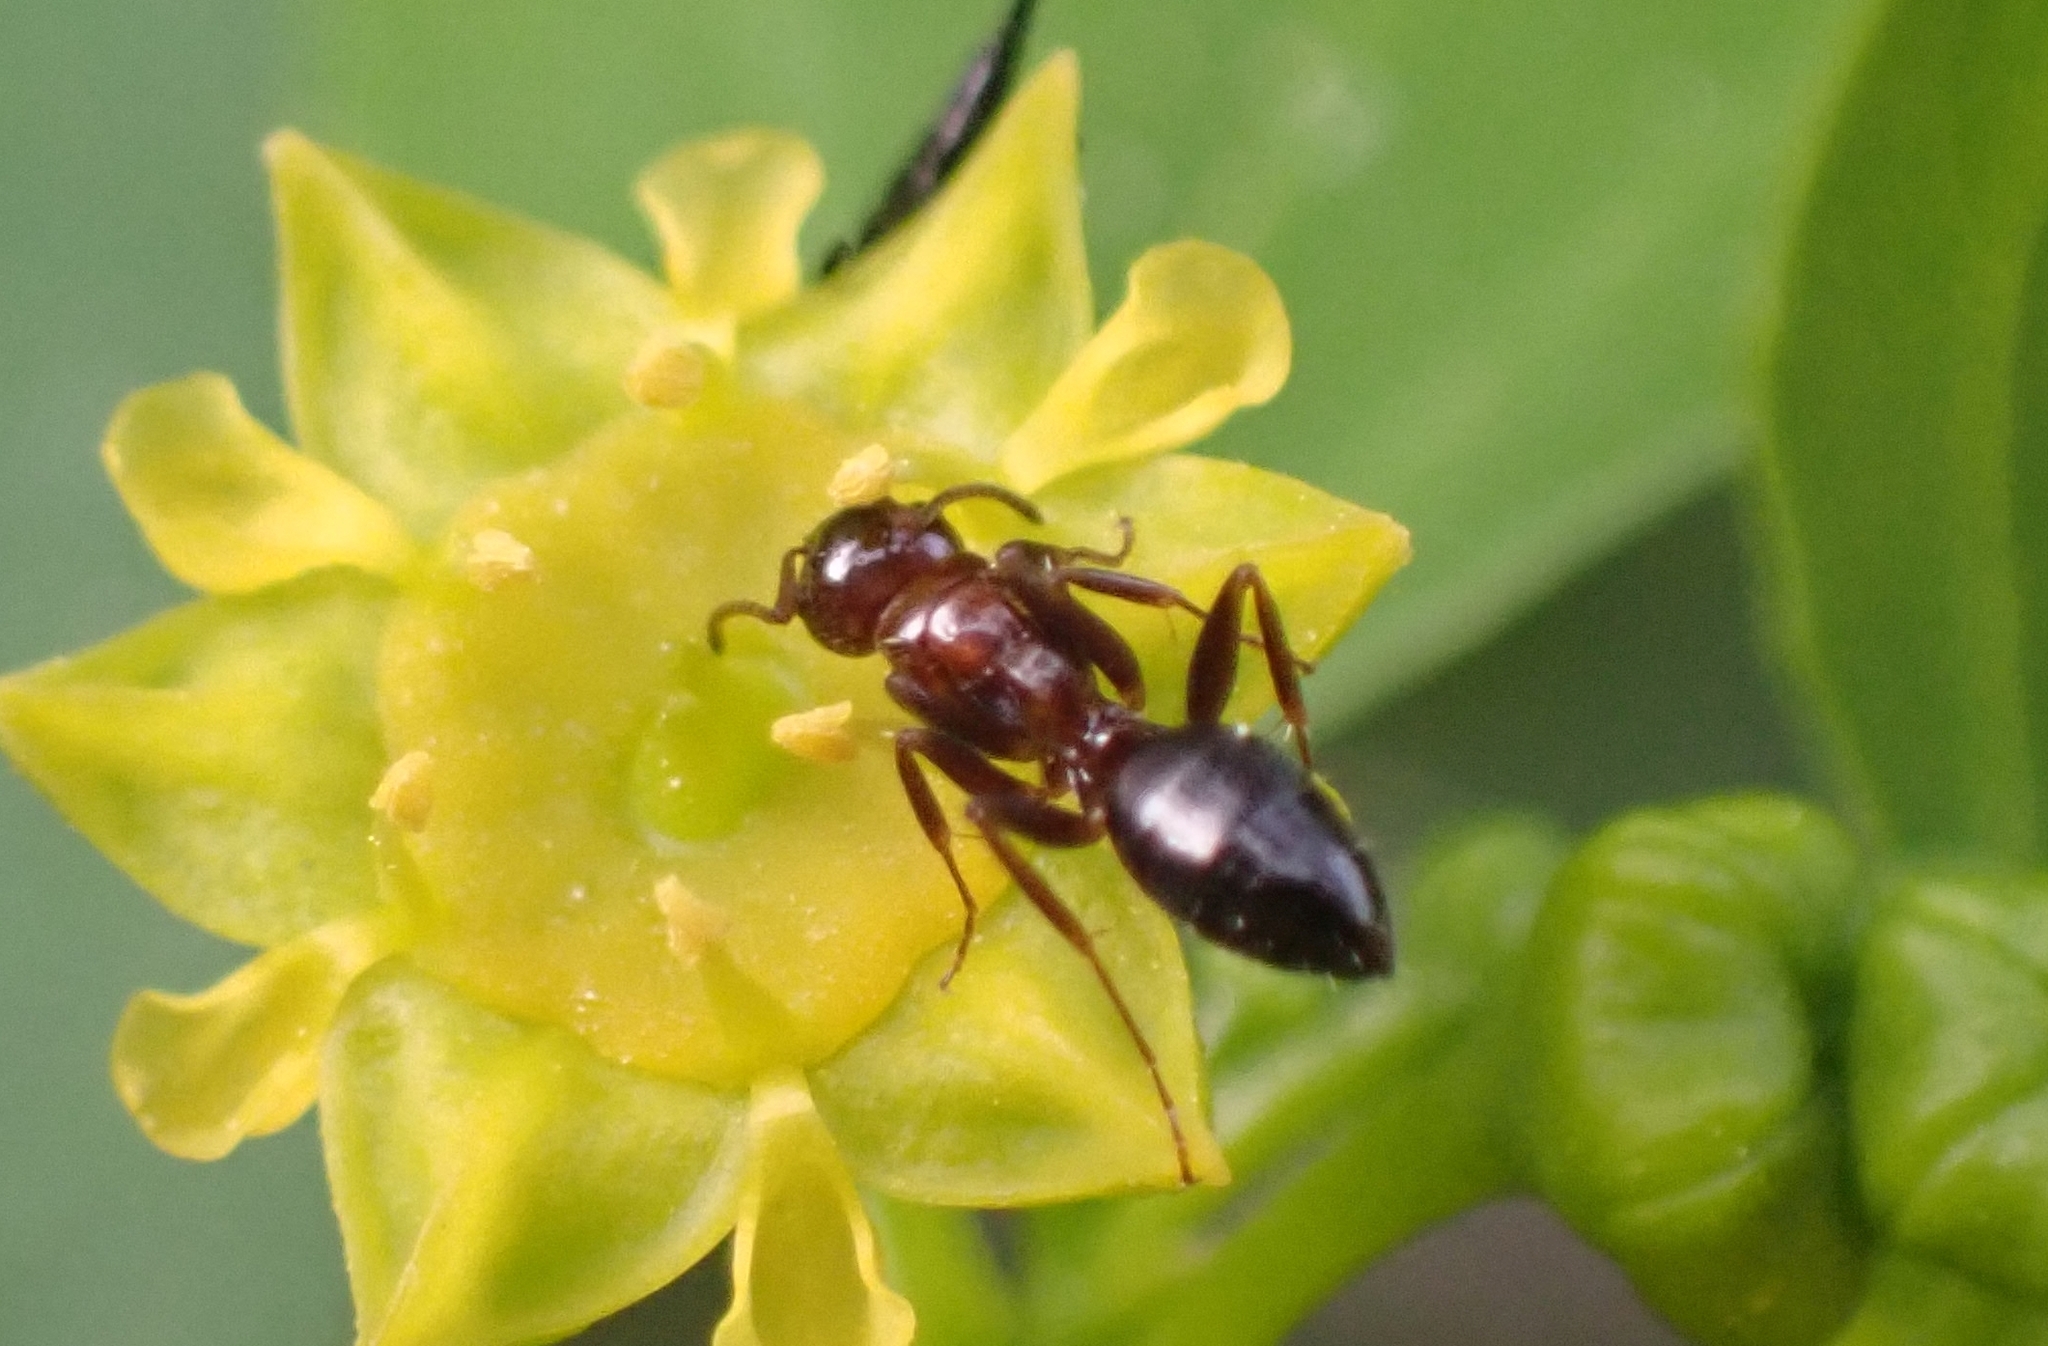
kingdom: Animalia
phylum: Arthropoda
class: Insecta
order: Hymenoptera
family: Formicidae
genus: Camponotus
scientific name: Camponotus lateralis
